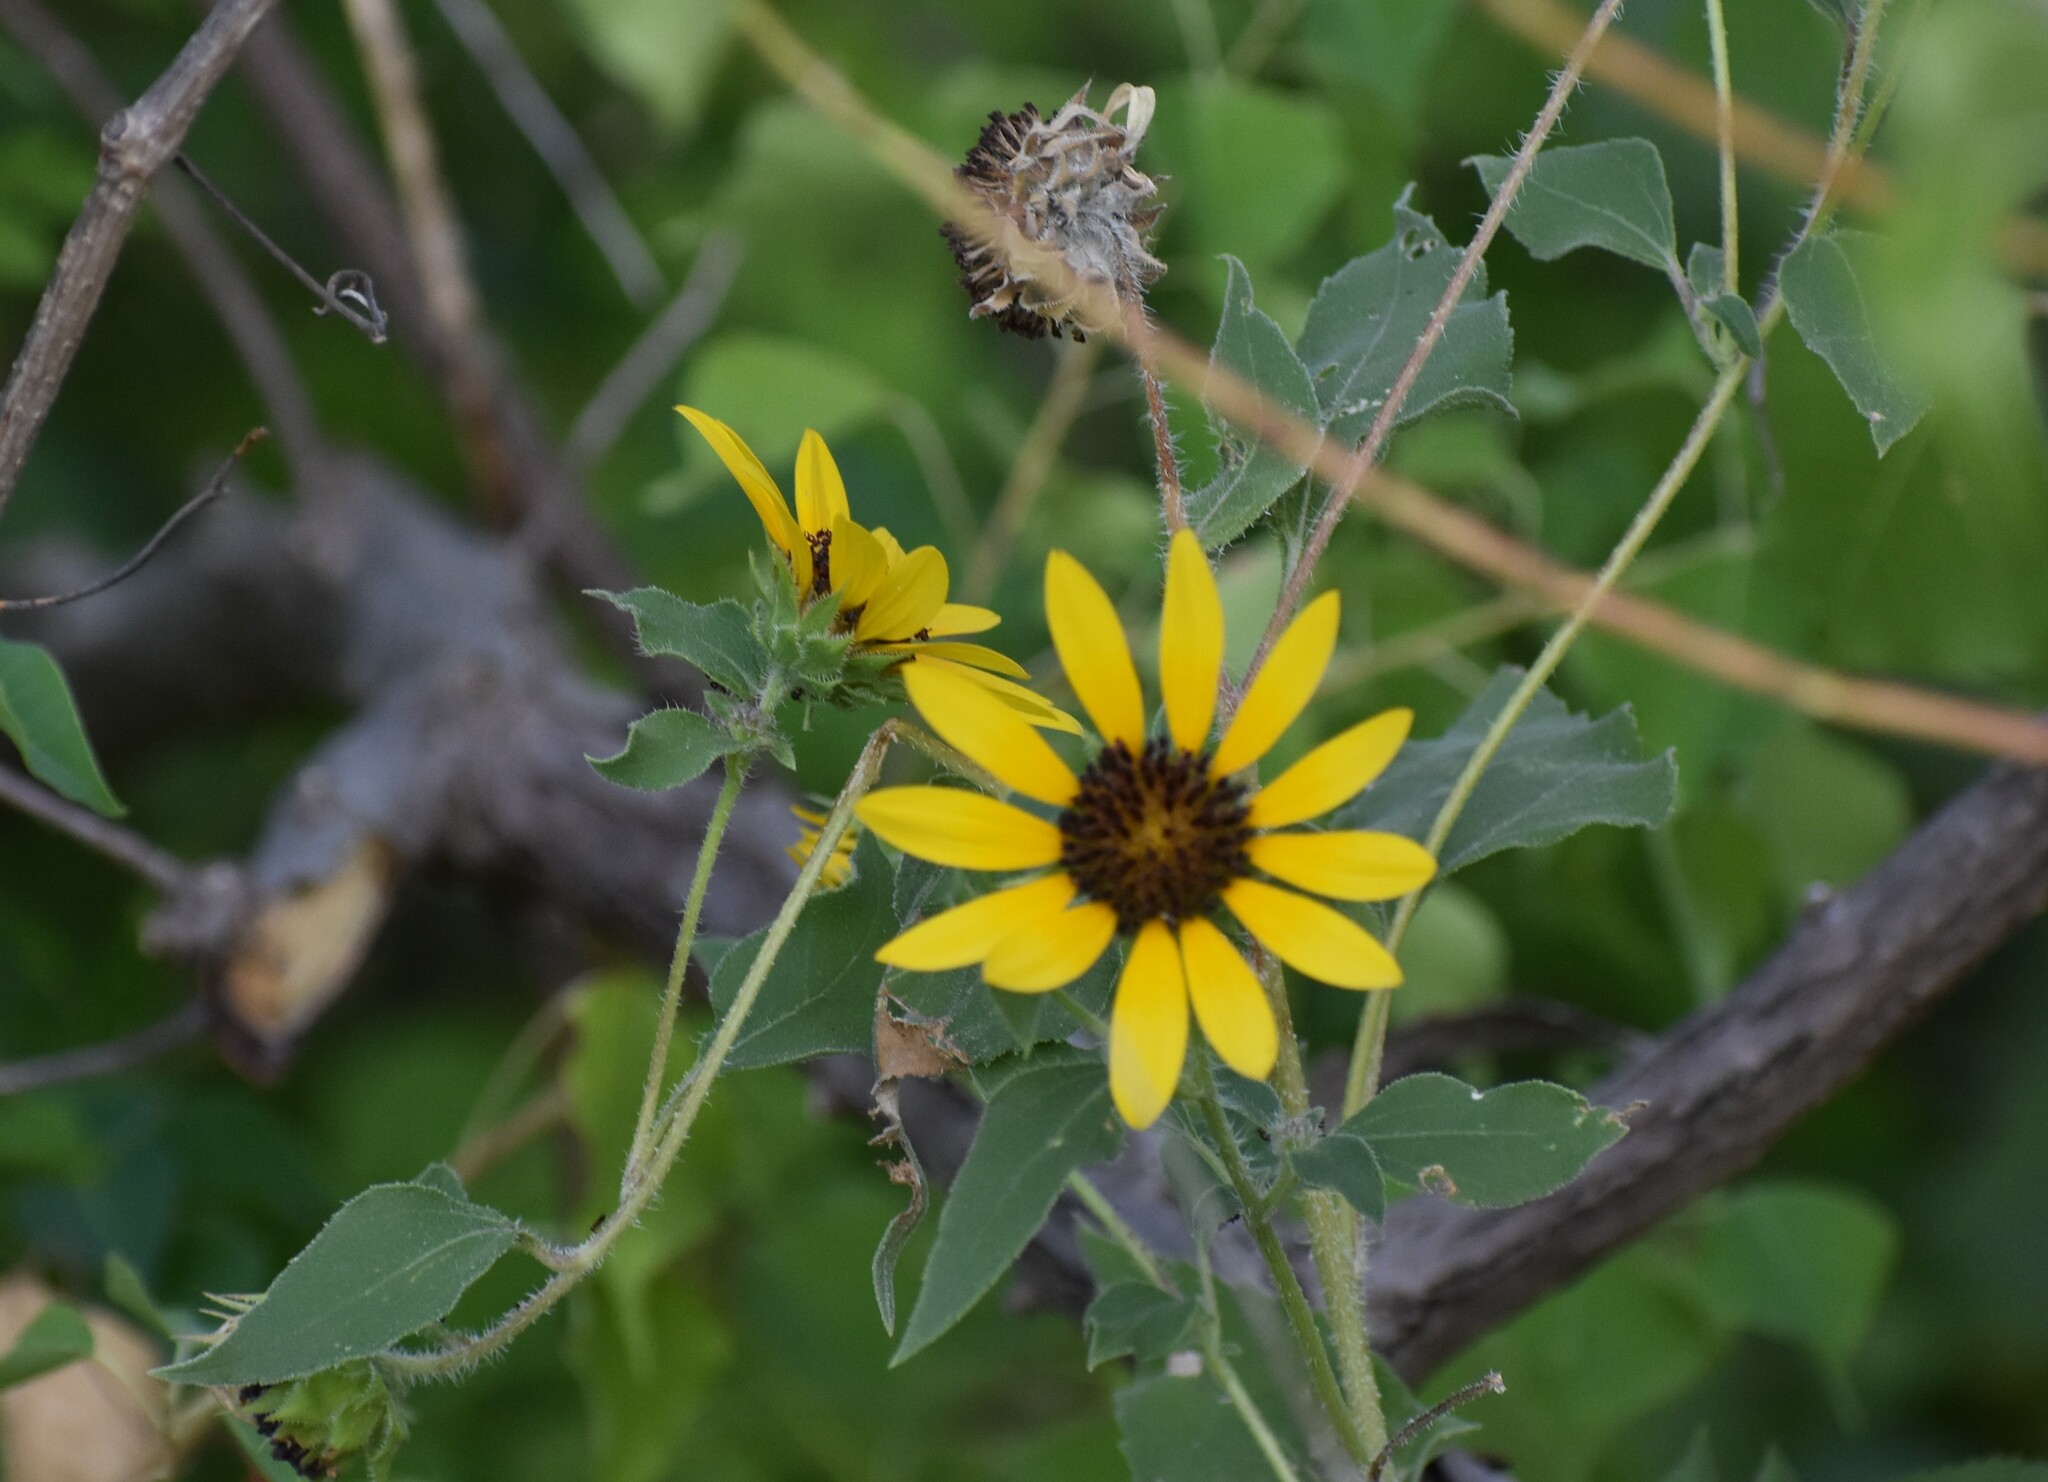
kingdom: Plantae
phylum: Tracheophyta
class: Magnoliopsida
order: Asterales
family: Asteraceae
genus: Helianthus
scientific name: Helianthus annuus
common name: Sunflower
